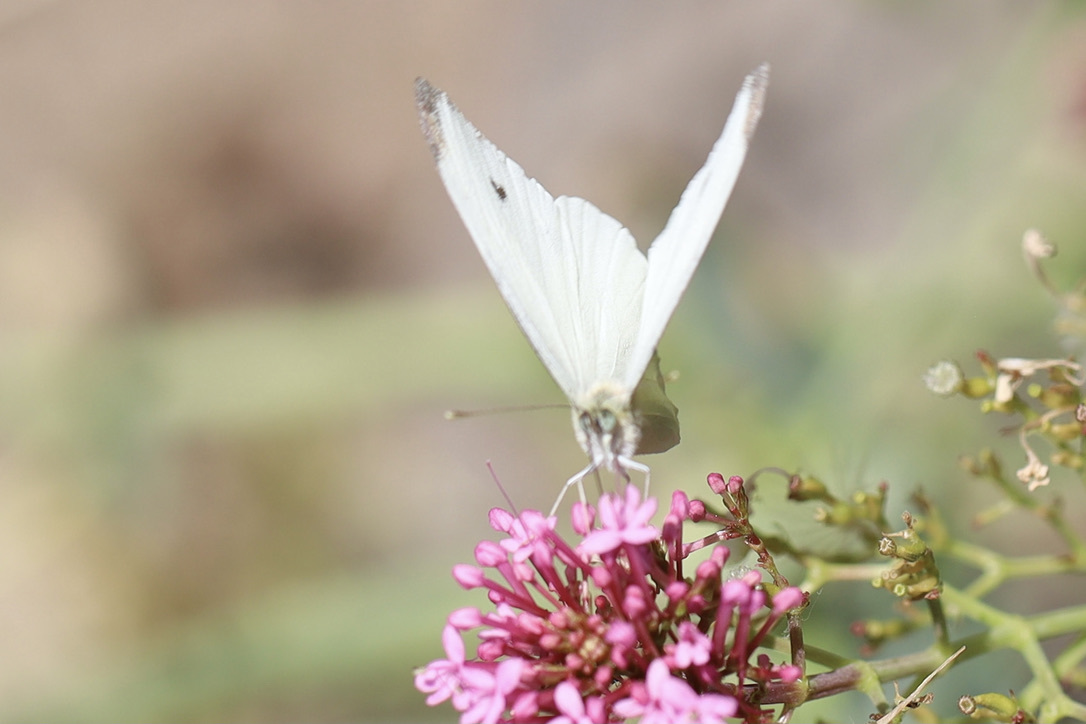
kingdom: Animalia
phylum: Arthropoda
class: Insecta
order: Lepidoptera
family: Pieridae
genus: Pieris
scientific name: Pieris rapae
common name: Small white
